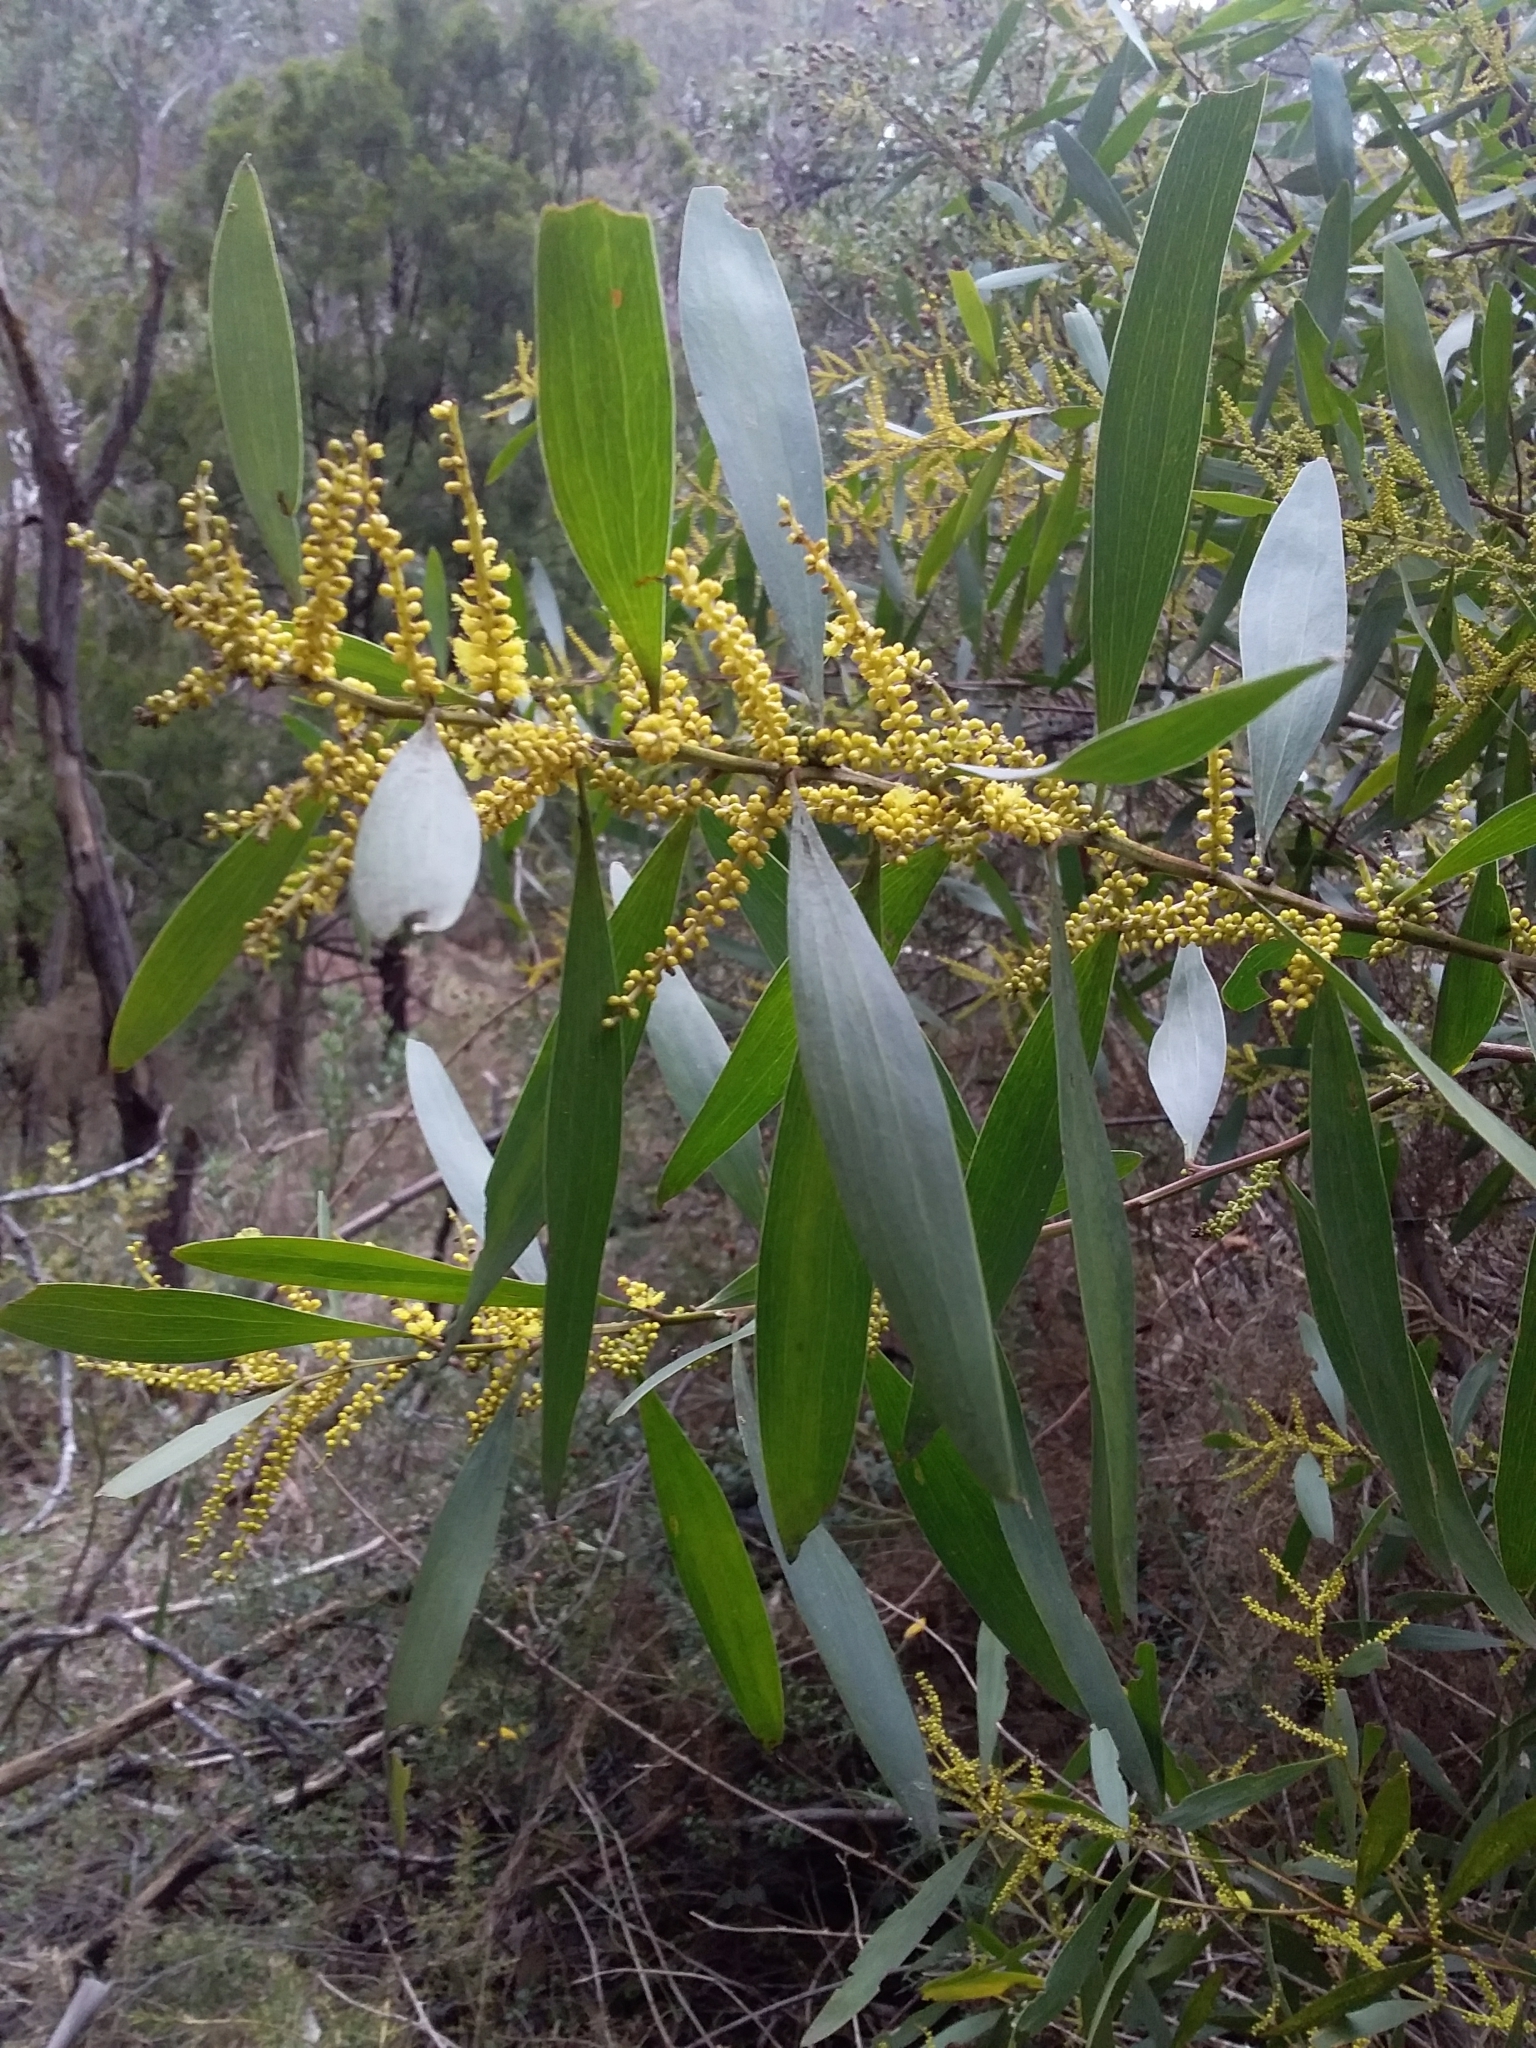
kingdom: Plantae
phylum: Tracheophyta
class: Magnoliopsida
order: Fabales
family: Fabaceae
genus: Acacia
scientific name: Acacia longifolia
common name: Sydney golden wattle
